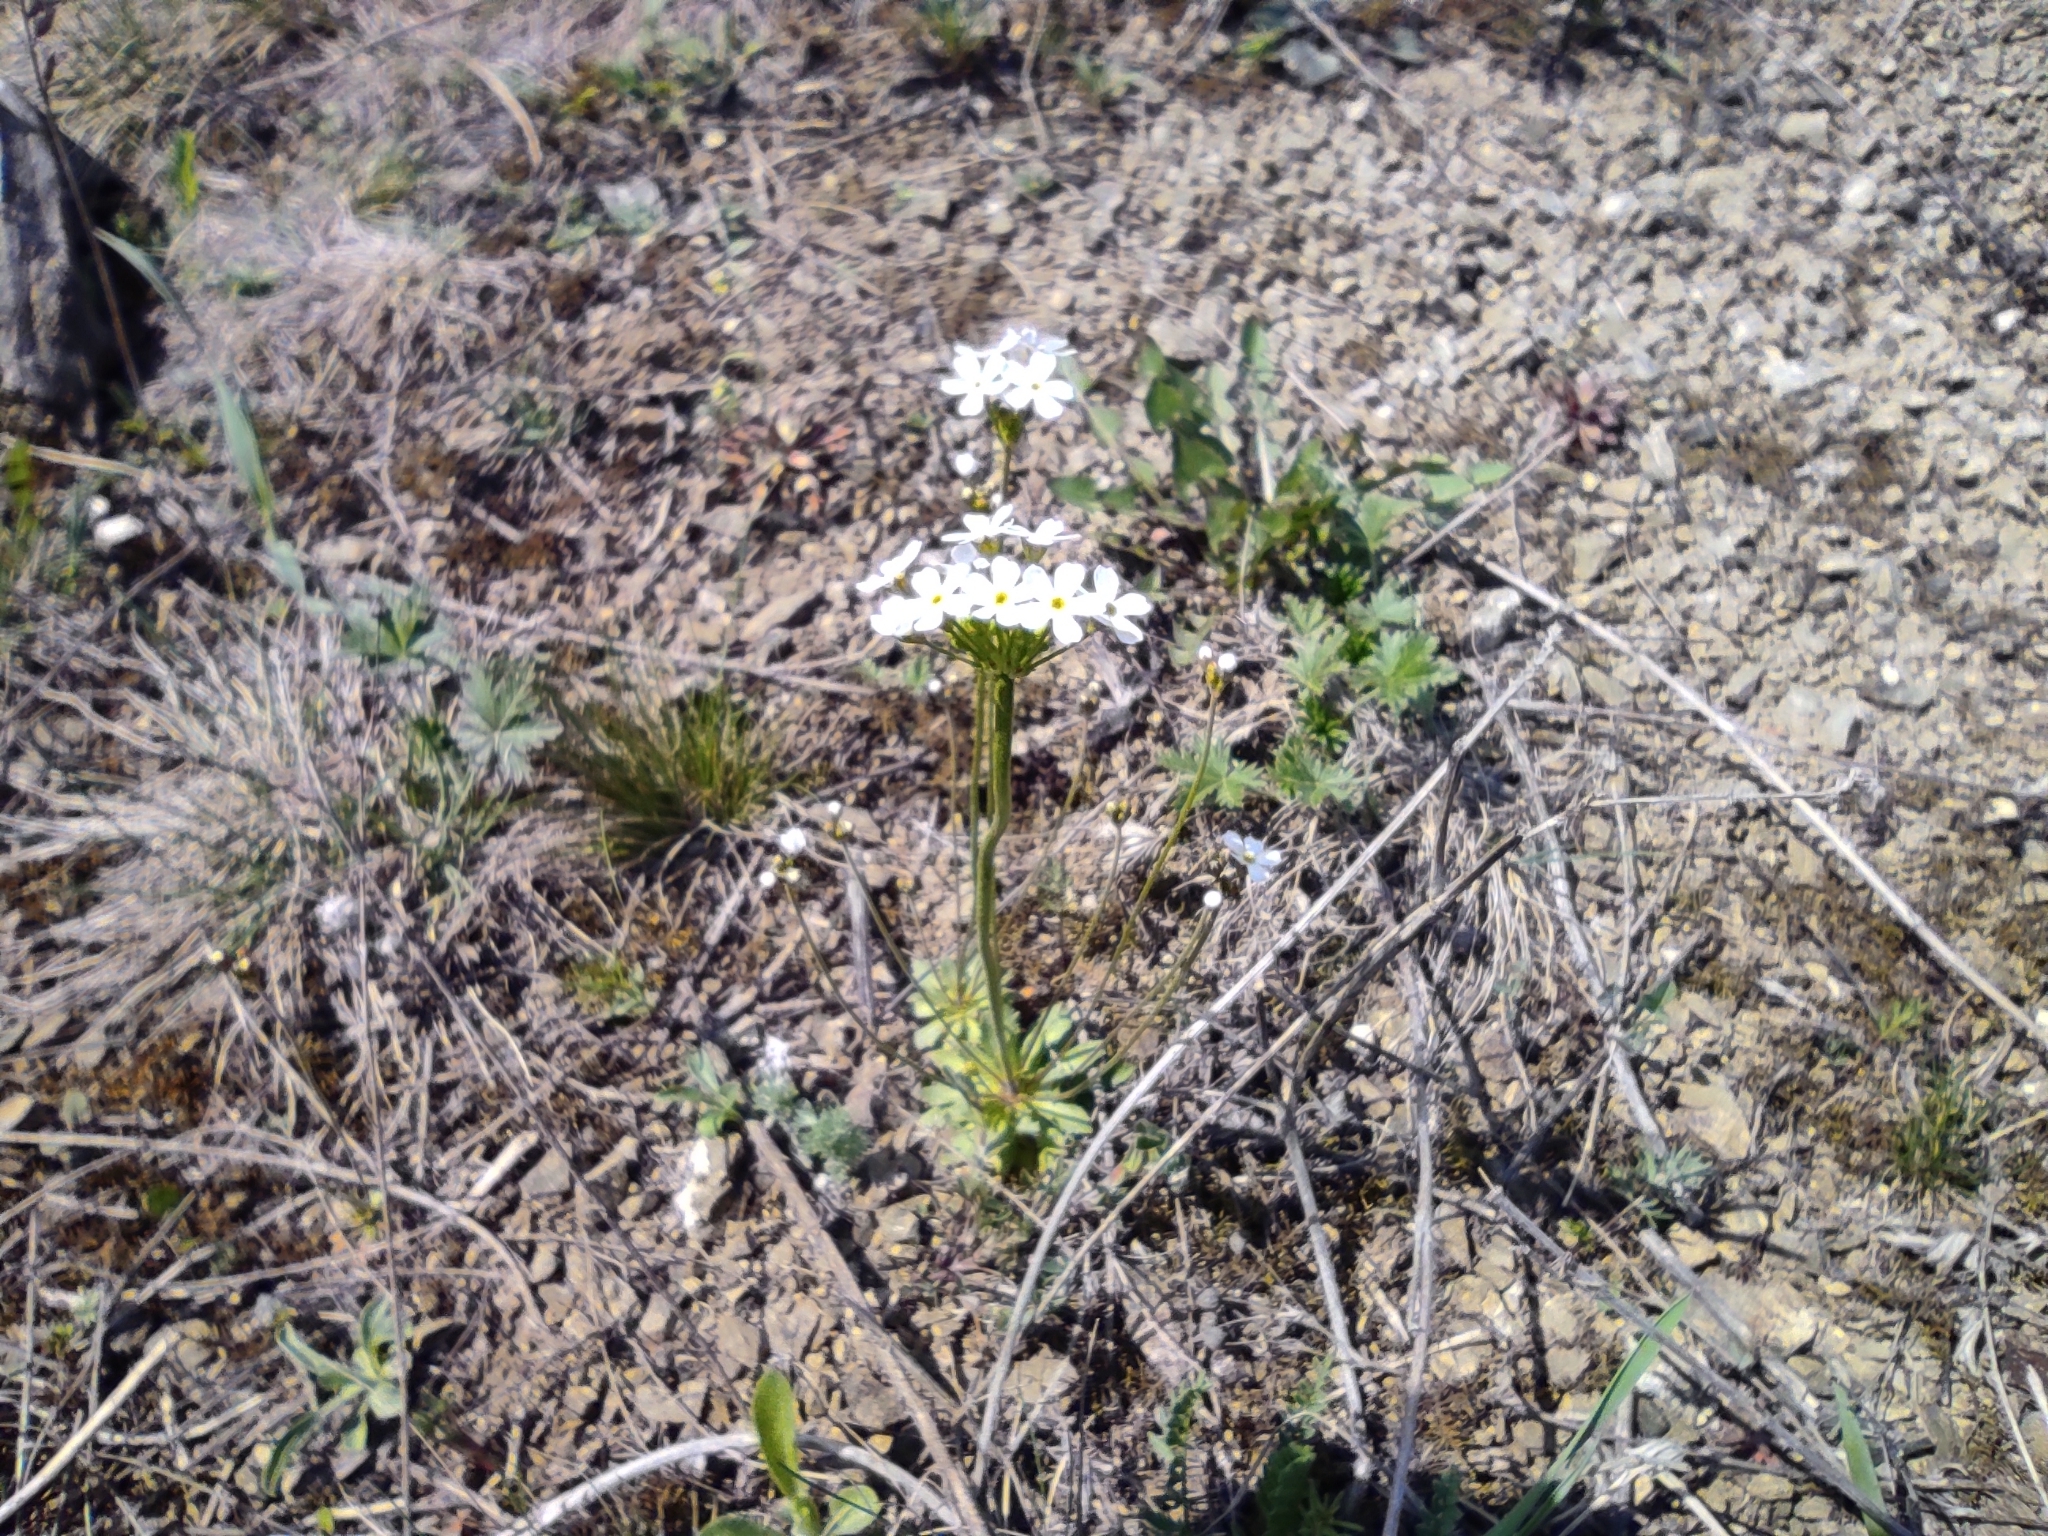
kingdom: Plantae
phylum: Tracheophyta
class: Magnoliopsida
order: Ericales
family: Primulaceae
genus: Androsace
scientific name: Androsace lactiflora
